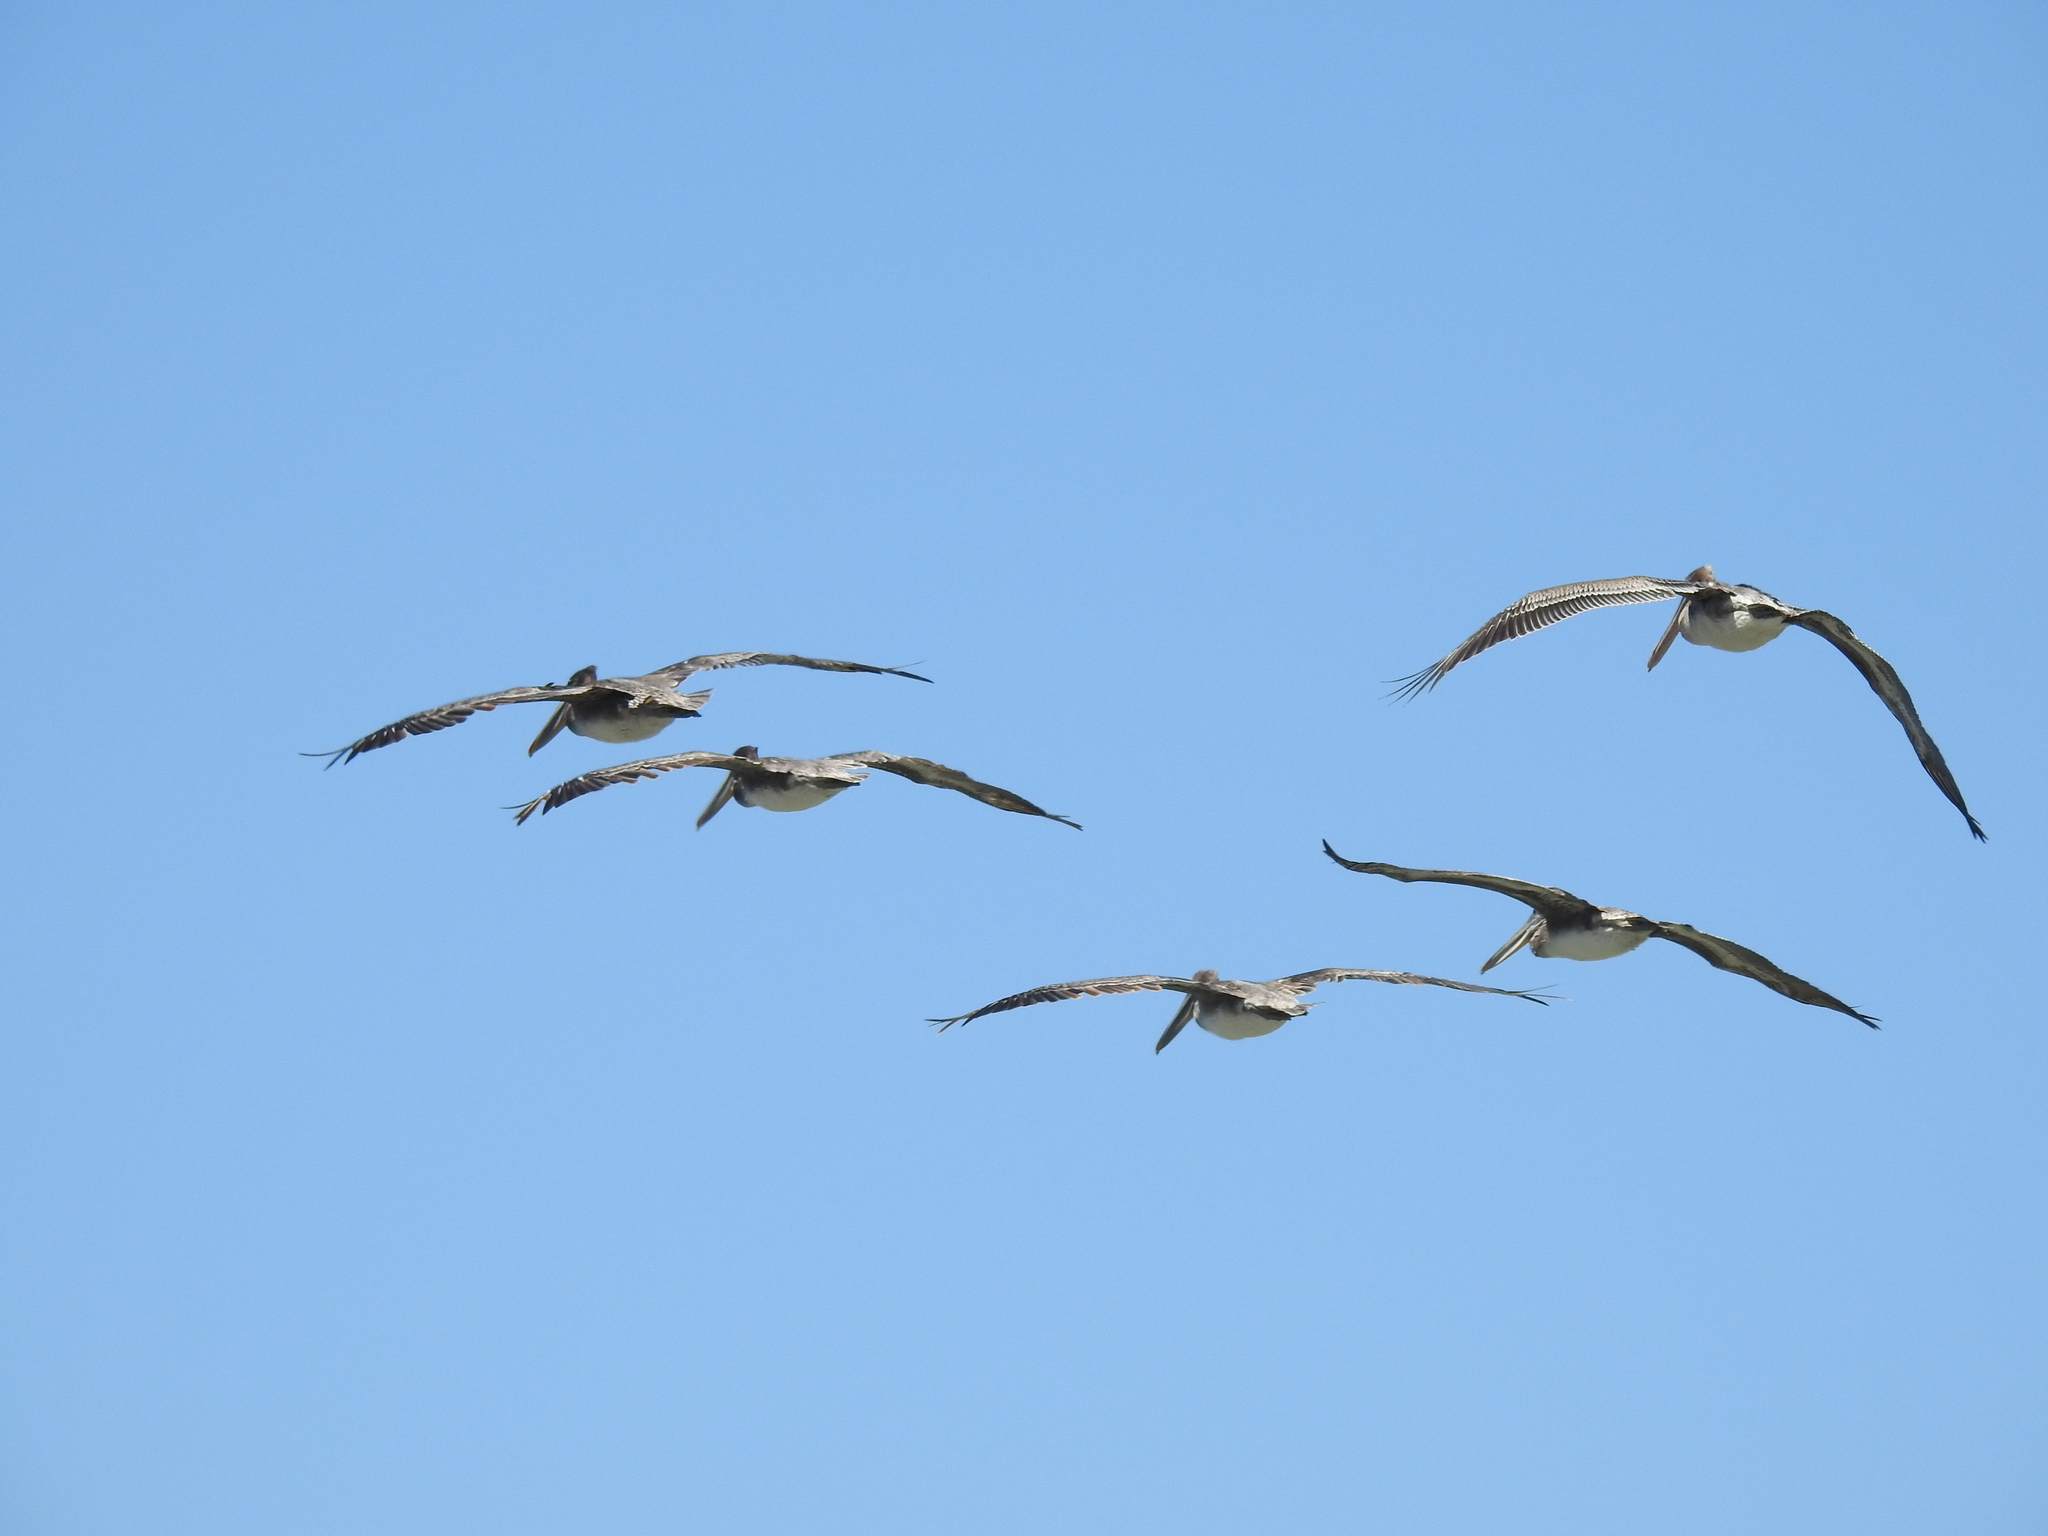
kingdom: Animalia
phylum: Chordata
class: Aves
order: Pelecaniformes
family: Pelecanidae
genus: Pelecanus
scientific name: Pelecanus occidentalis
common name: Brown pelican
